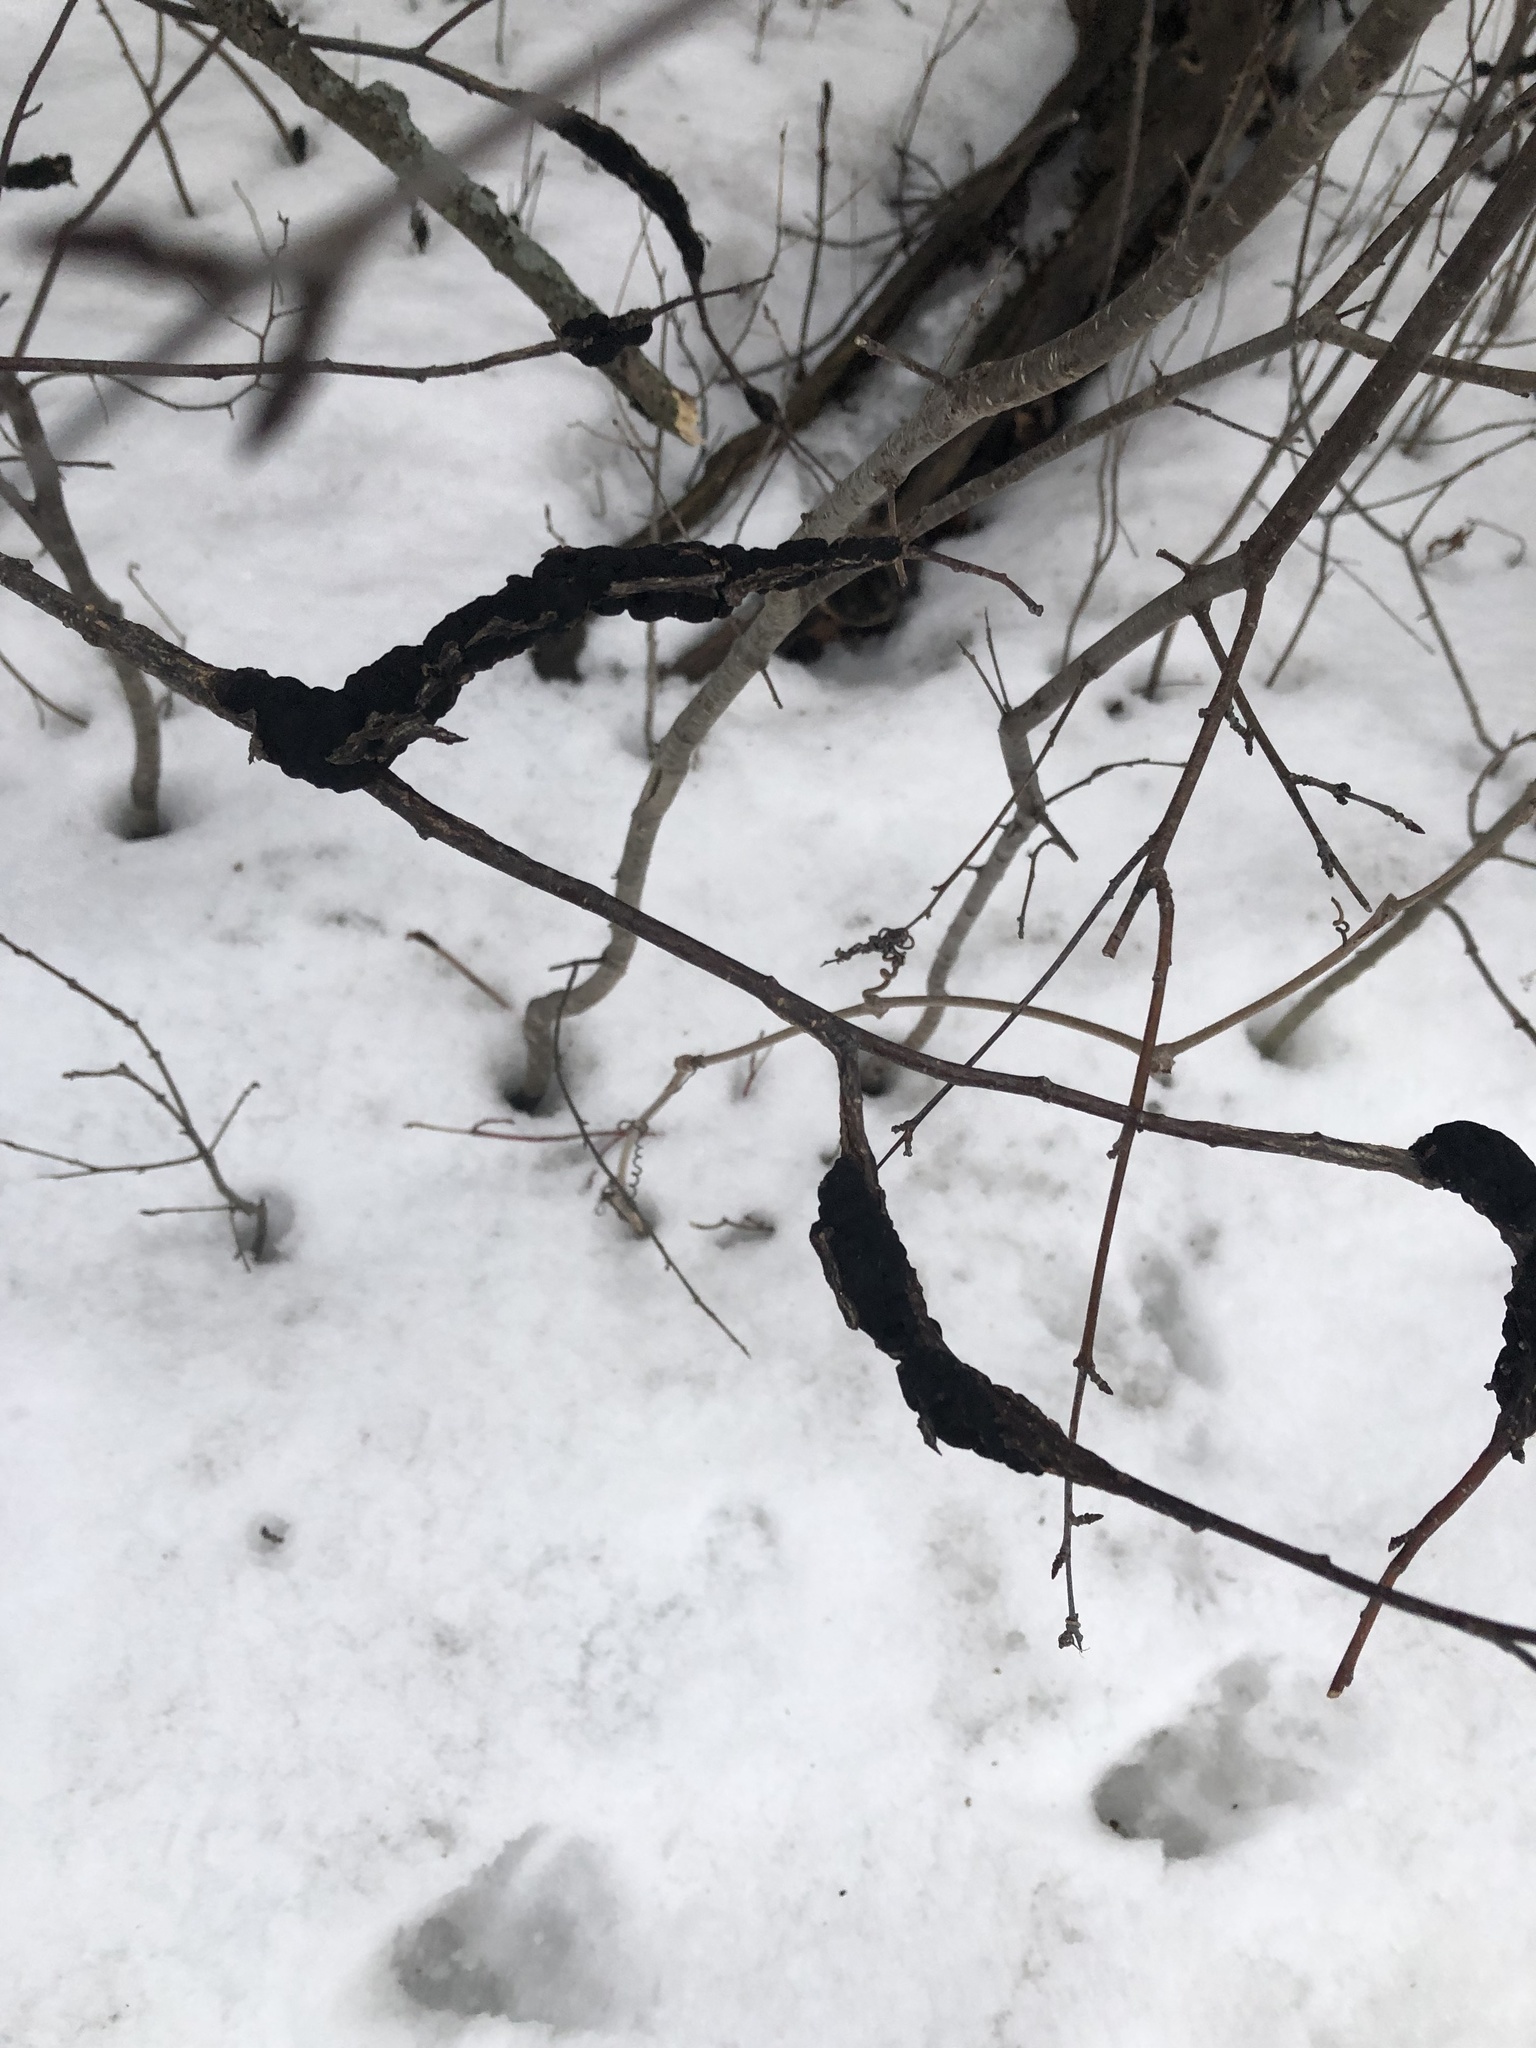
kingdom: Fungi
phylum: Ascomycota
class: Dothideomycetes
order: Venturiales
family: Venturiaceae
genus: Apiosporina
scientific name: Apiosporina morbosa
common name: Black knot
